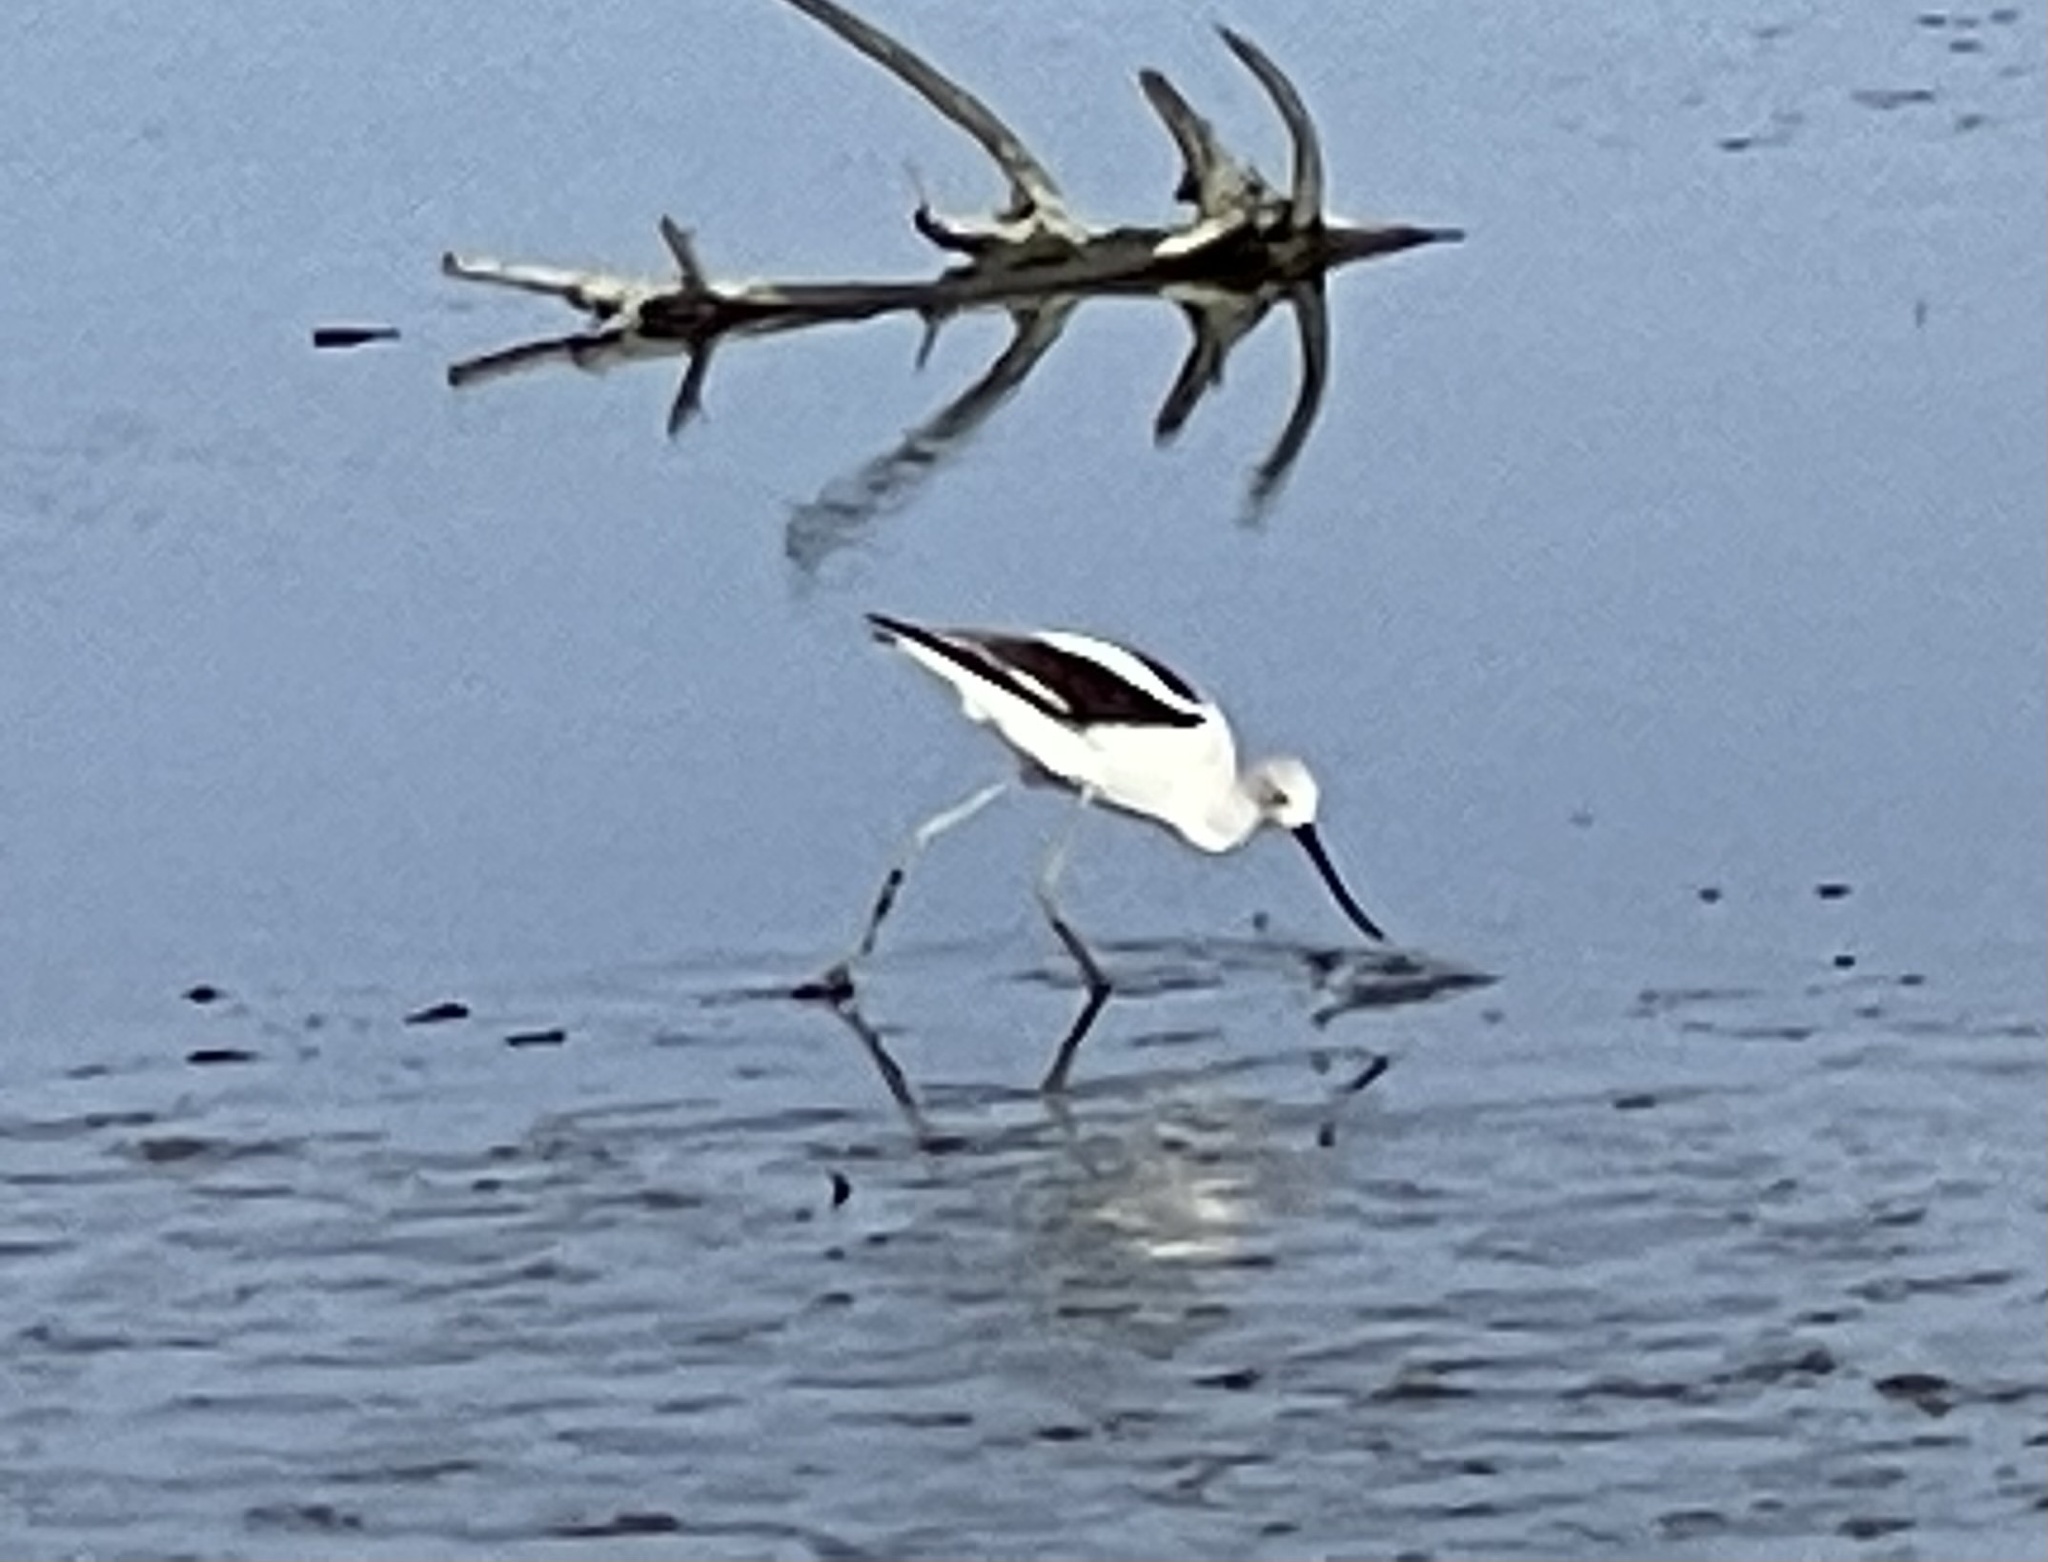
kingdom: Animalia
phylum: Chordata
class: Aves
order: Charadriiformes
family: Recurvirostridae
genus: Recurvirostra
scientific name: Recurvirostra americana
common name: American avocet
